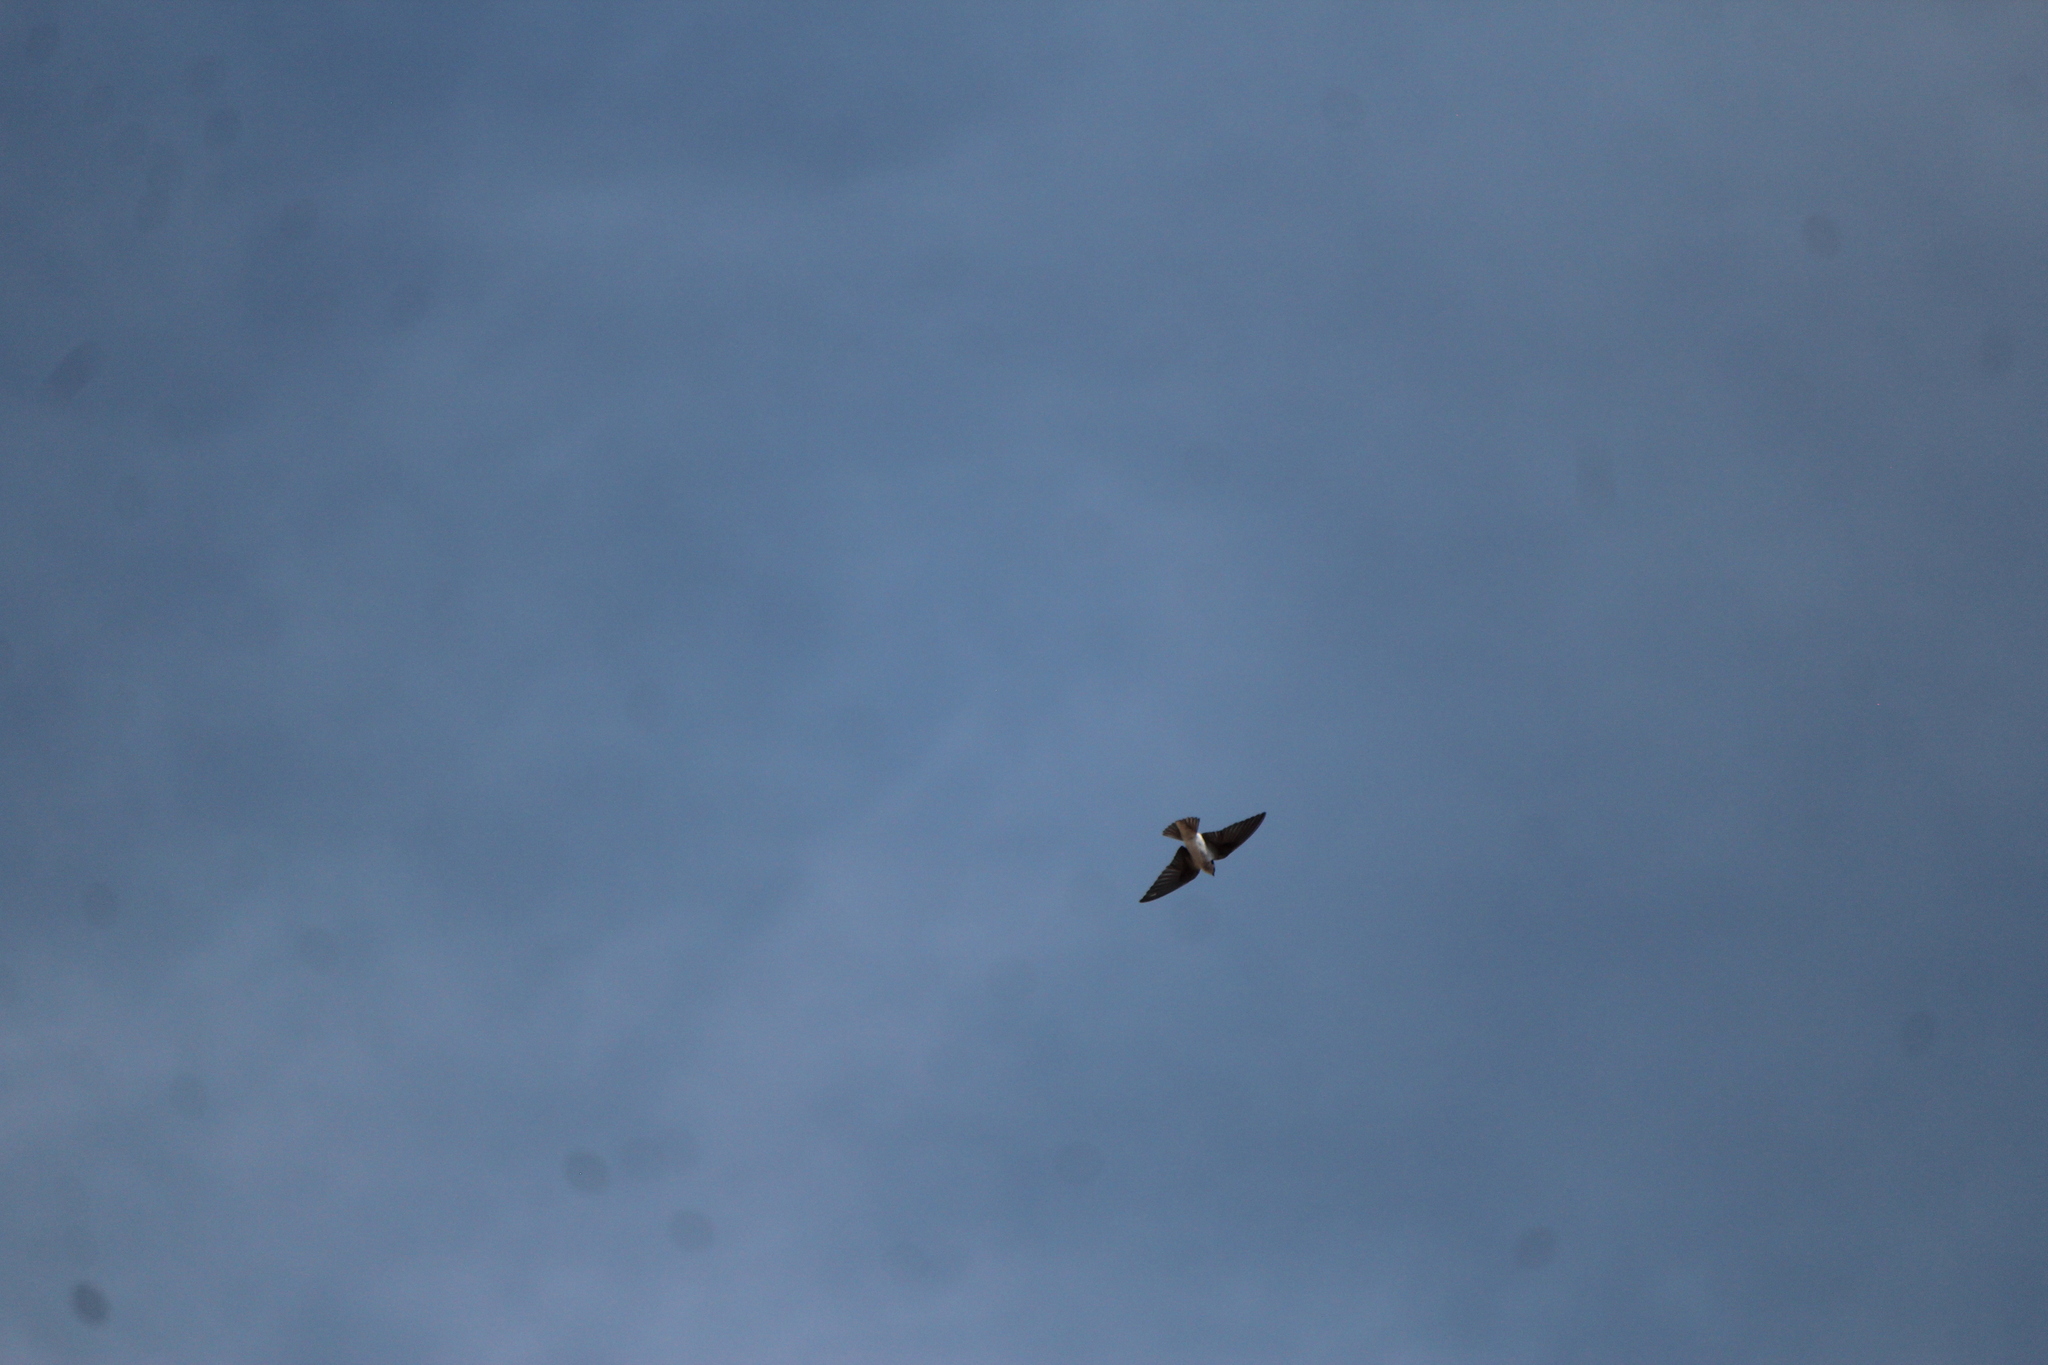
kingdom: Animalia
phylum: Chordata
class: Aves
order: Passeriformes
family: Hirundinidae
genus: Tachycineta
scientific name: Tachycineta thalassina
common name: Violet-green swallow
